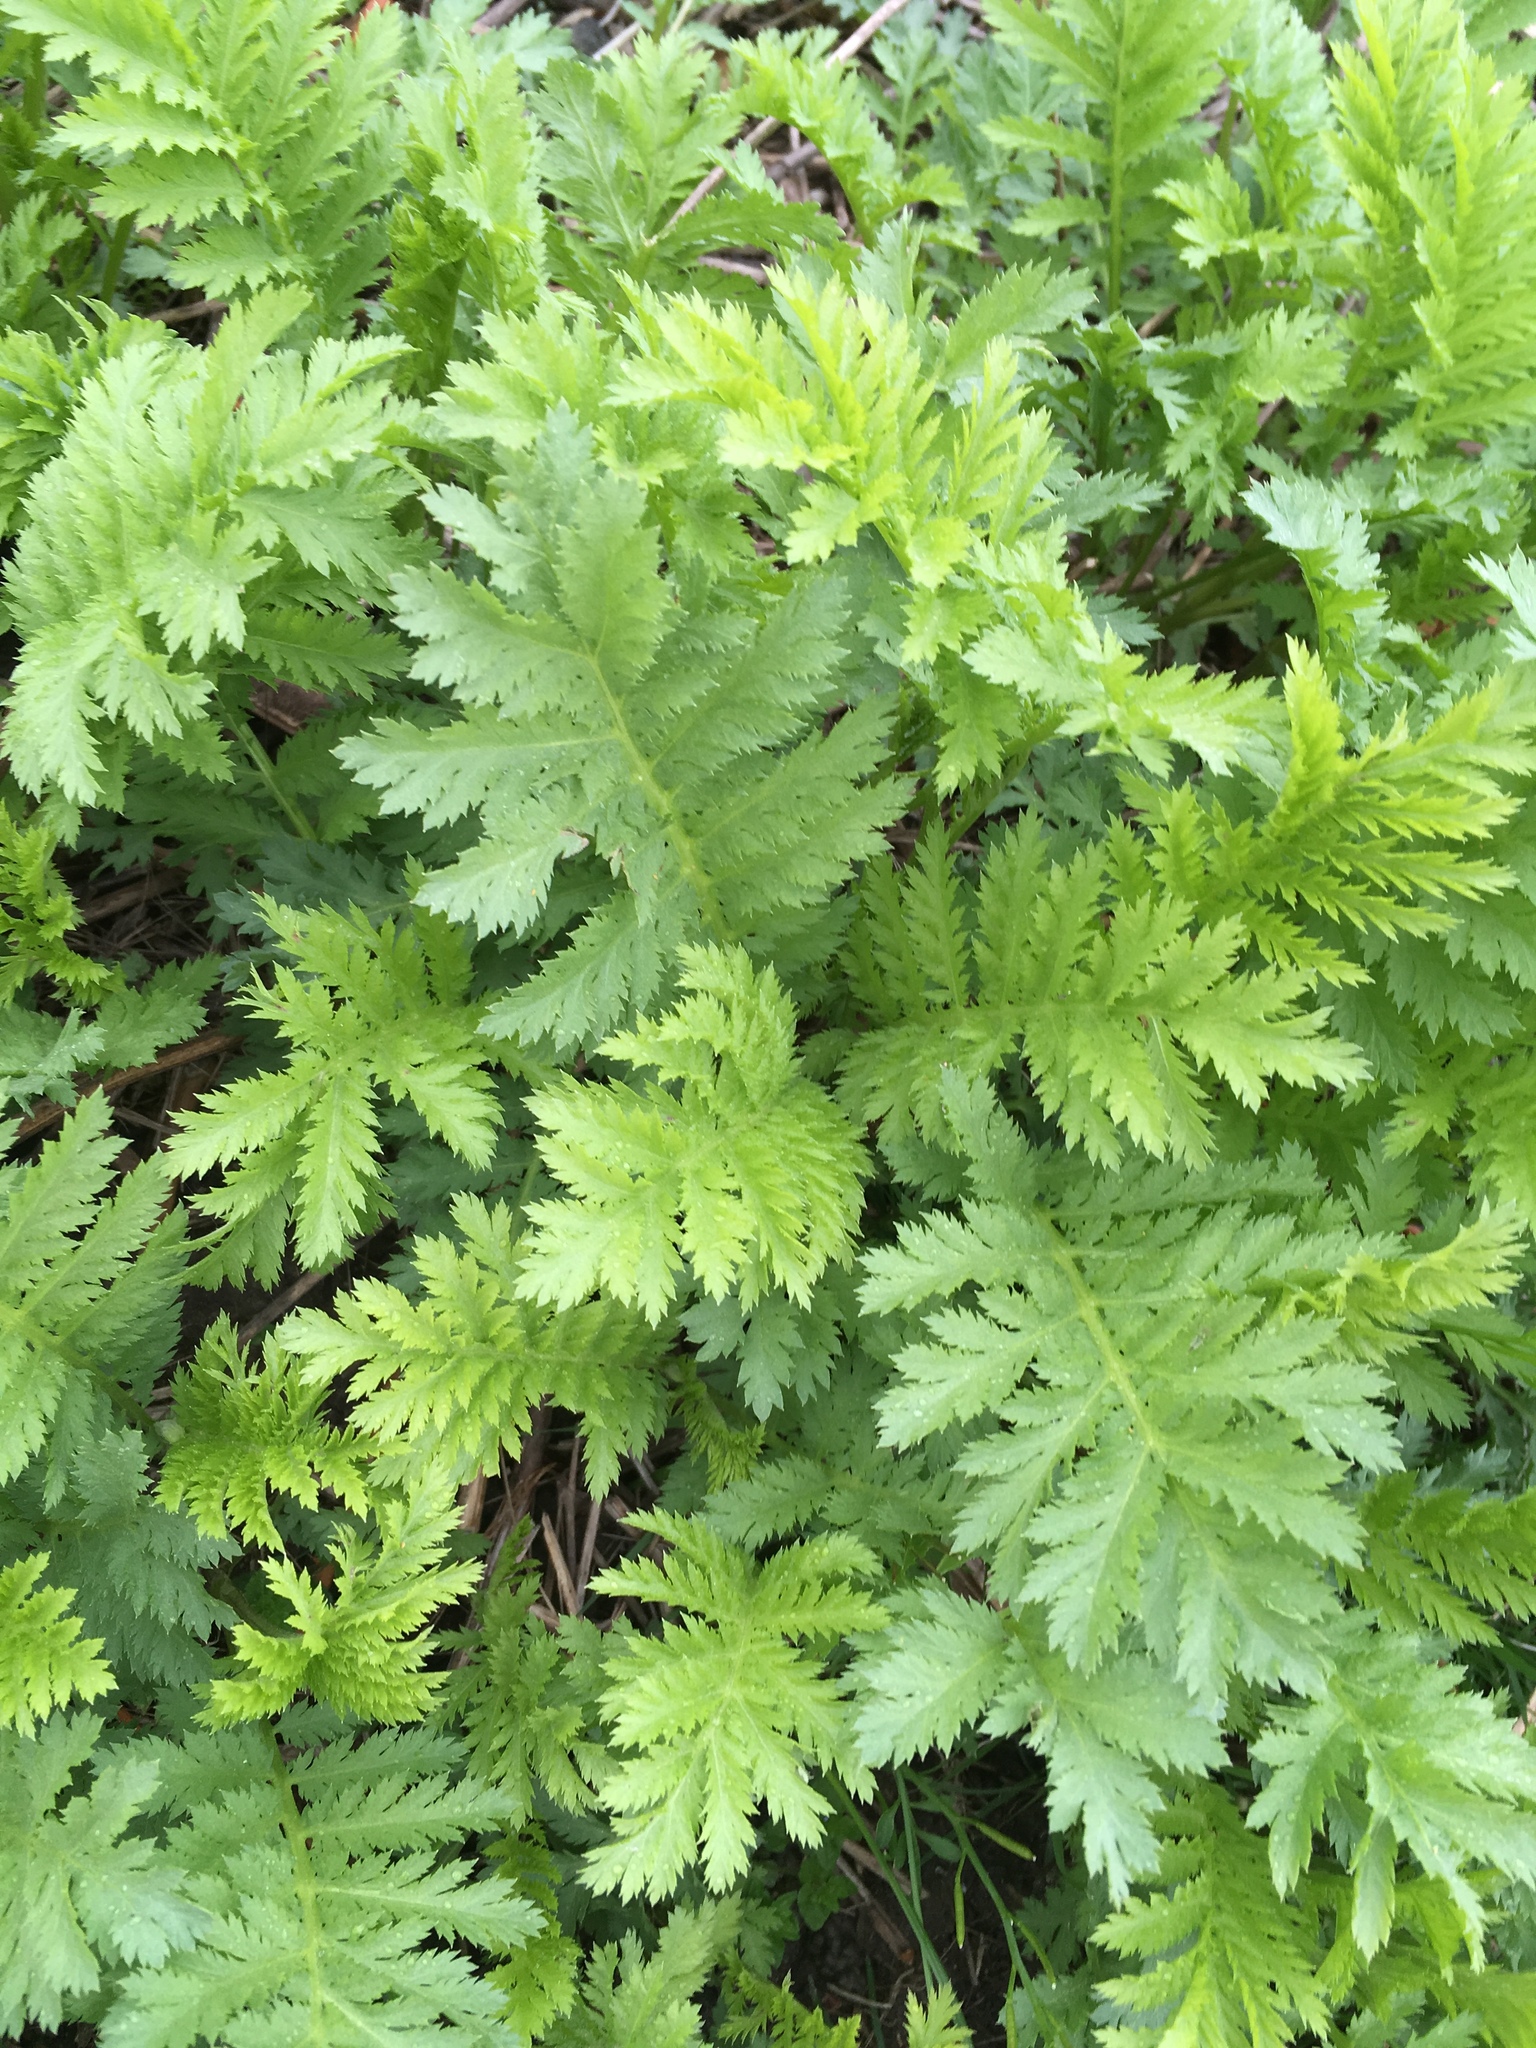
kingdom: Plantae
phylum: Tracheophyta
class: Magnoliopsida
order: Asterales
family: Asteraceae
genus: Tanacetum
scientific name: Tanacetum vulgare
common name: Common tansy
